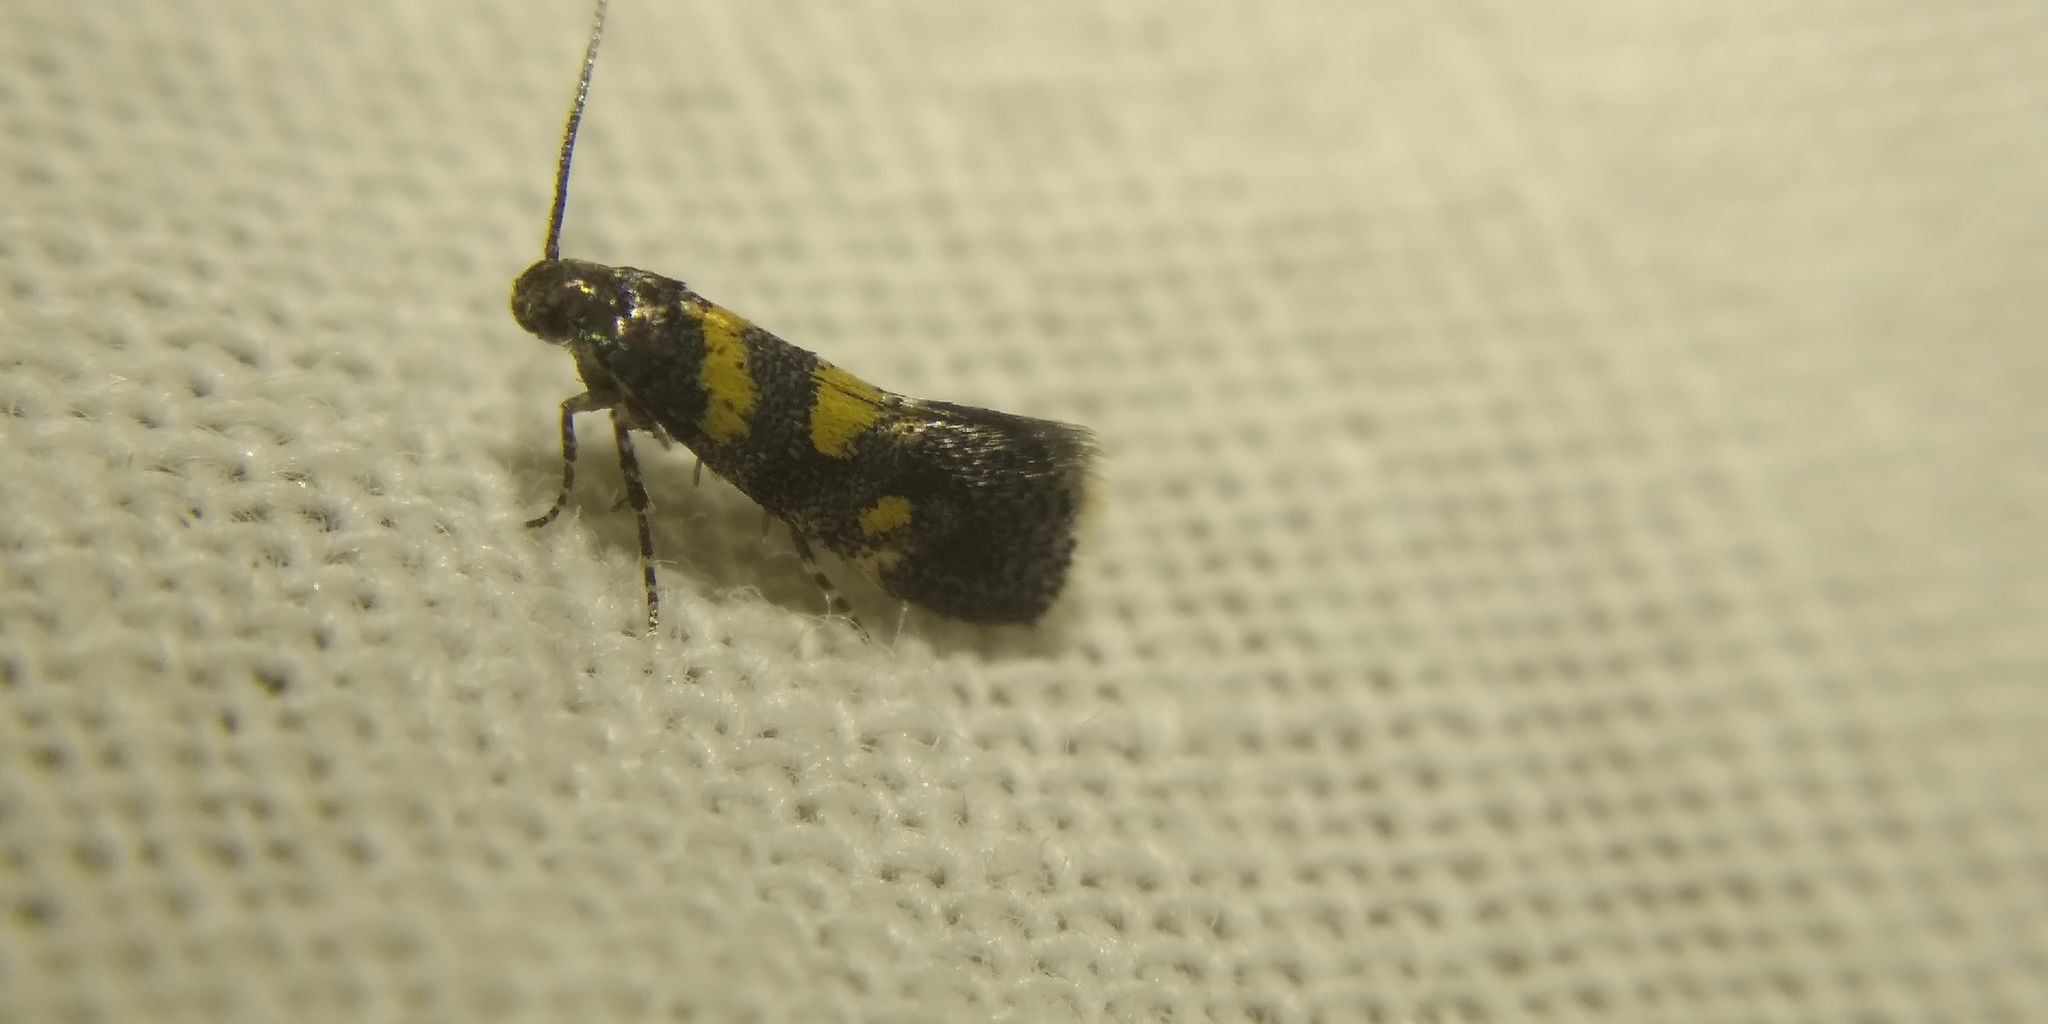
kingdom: Animalia
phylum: Arthropoda
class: Insecta
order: Lepidoptera
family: Gelechiidae
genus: Chrysoesthia
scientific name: Chrysoesthia sexguttella
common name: Moth
